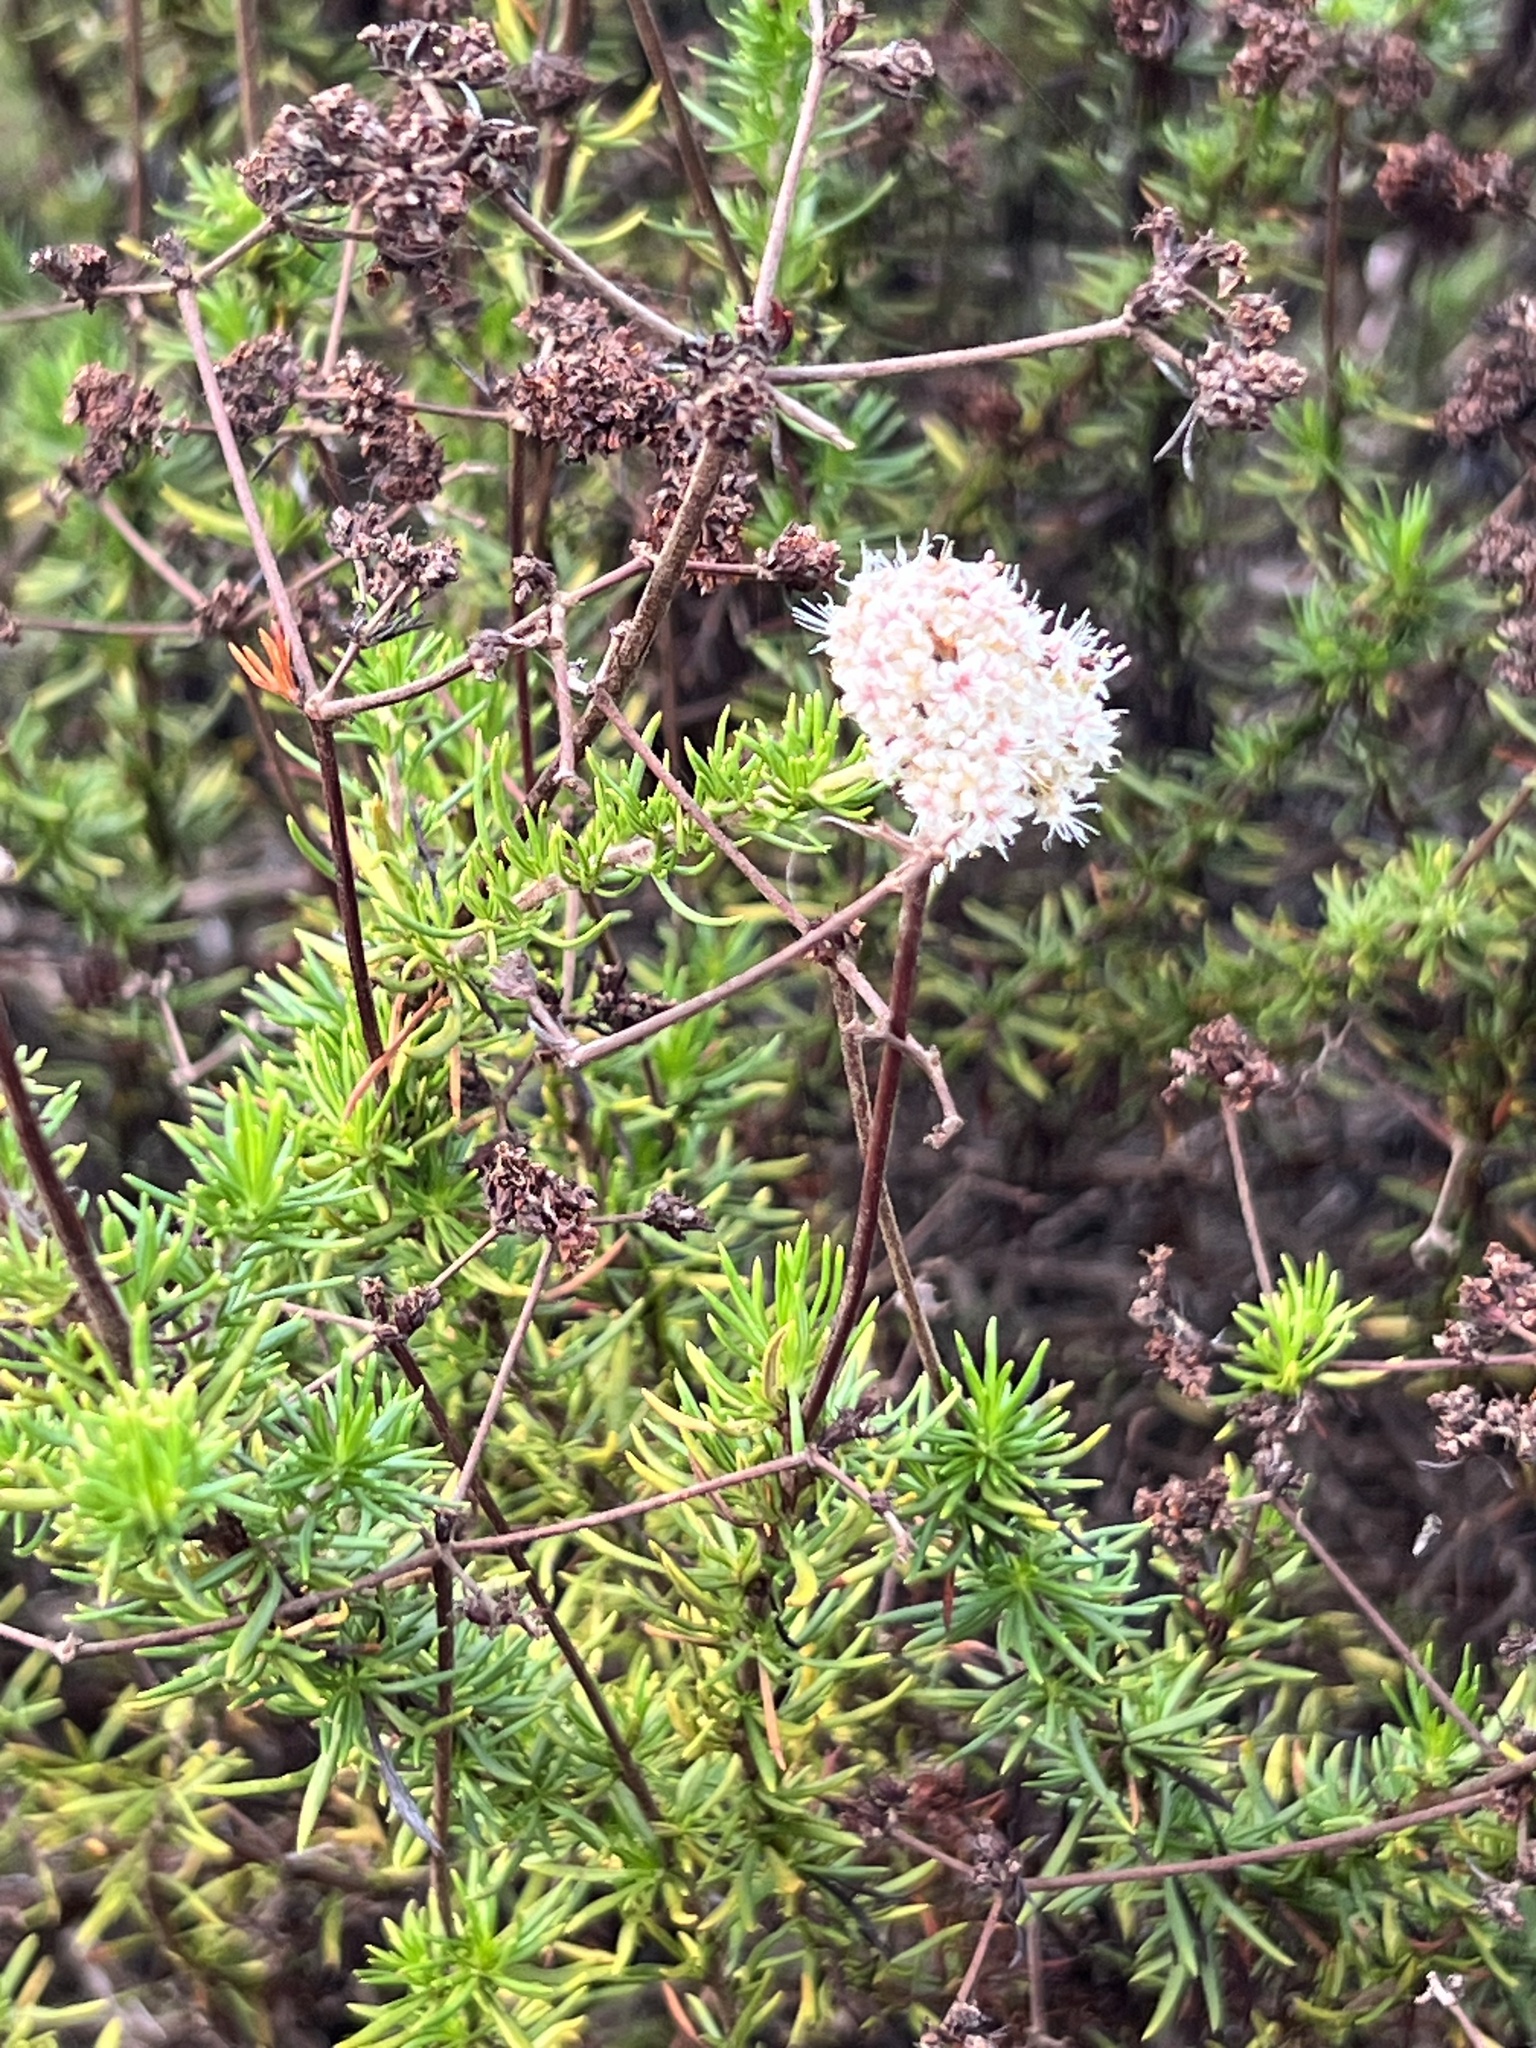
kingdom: Plantae
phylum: Tracheophyta
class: Magnoliopsida
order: Caryophyllales
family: Polygonaceae
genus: Eriogonum
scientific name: Eriogonum fasciculatum
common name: California wild buckwheat
